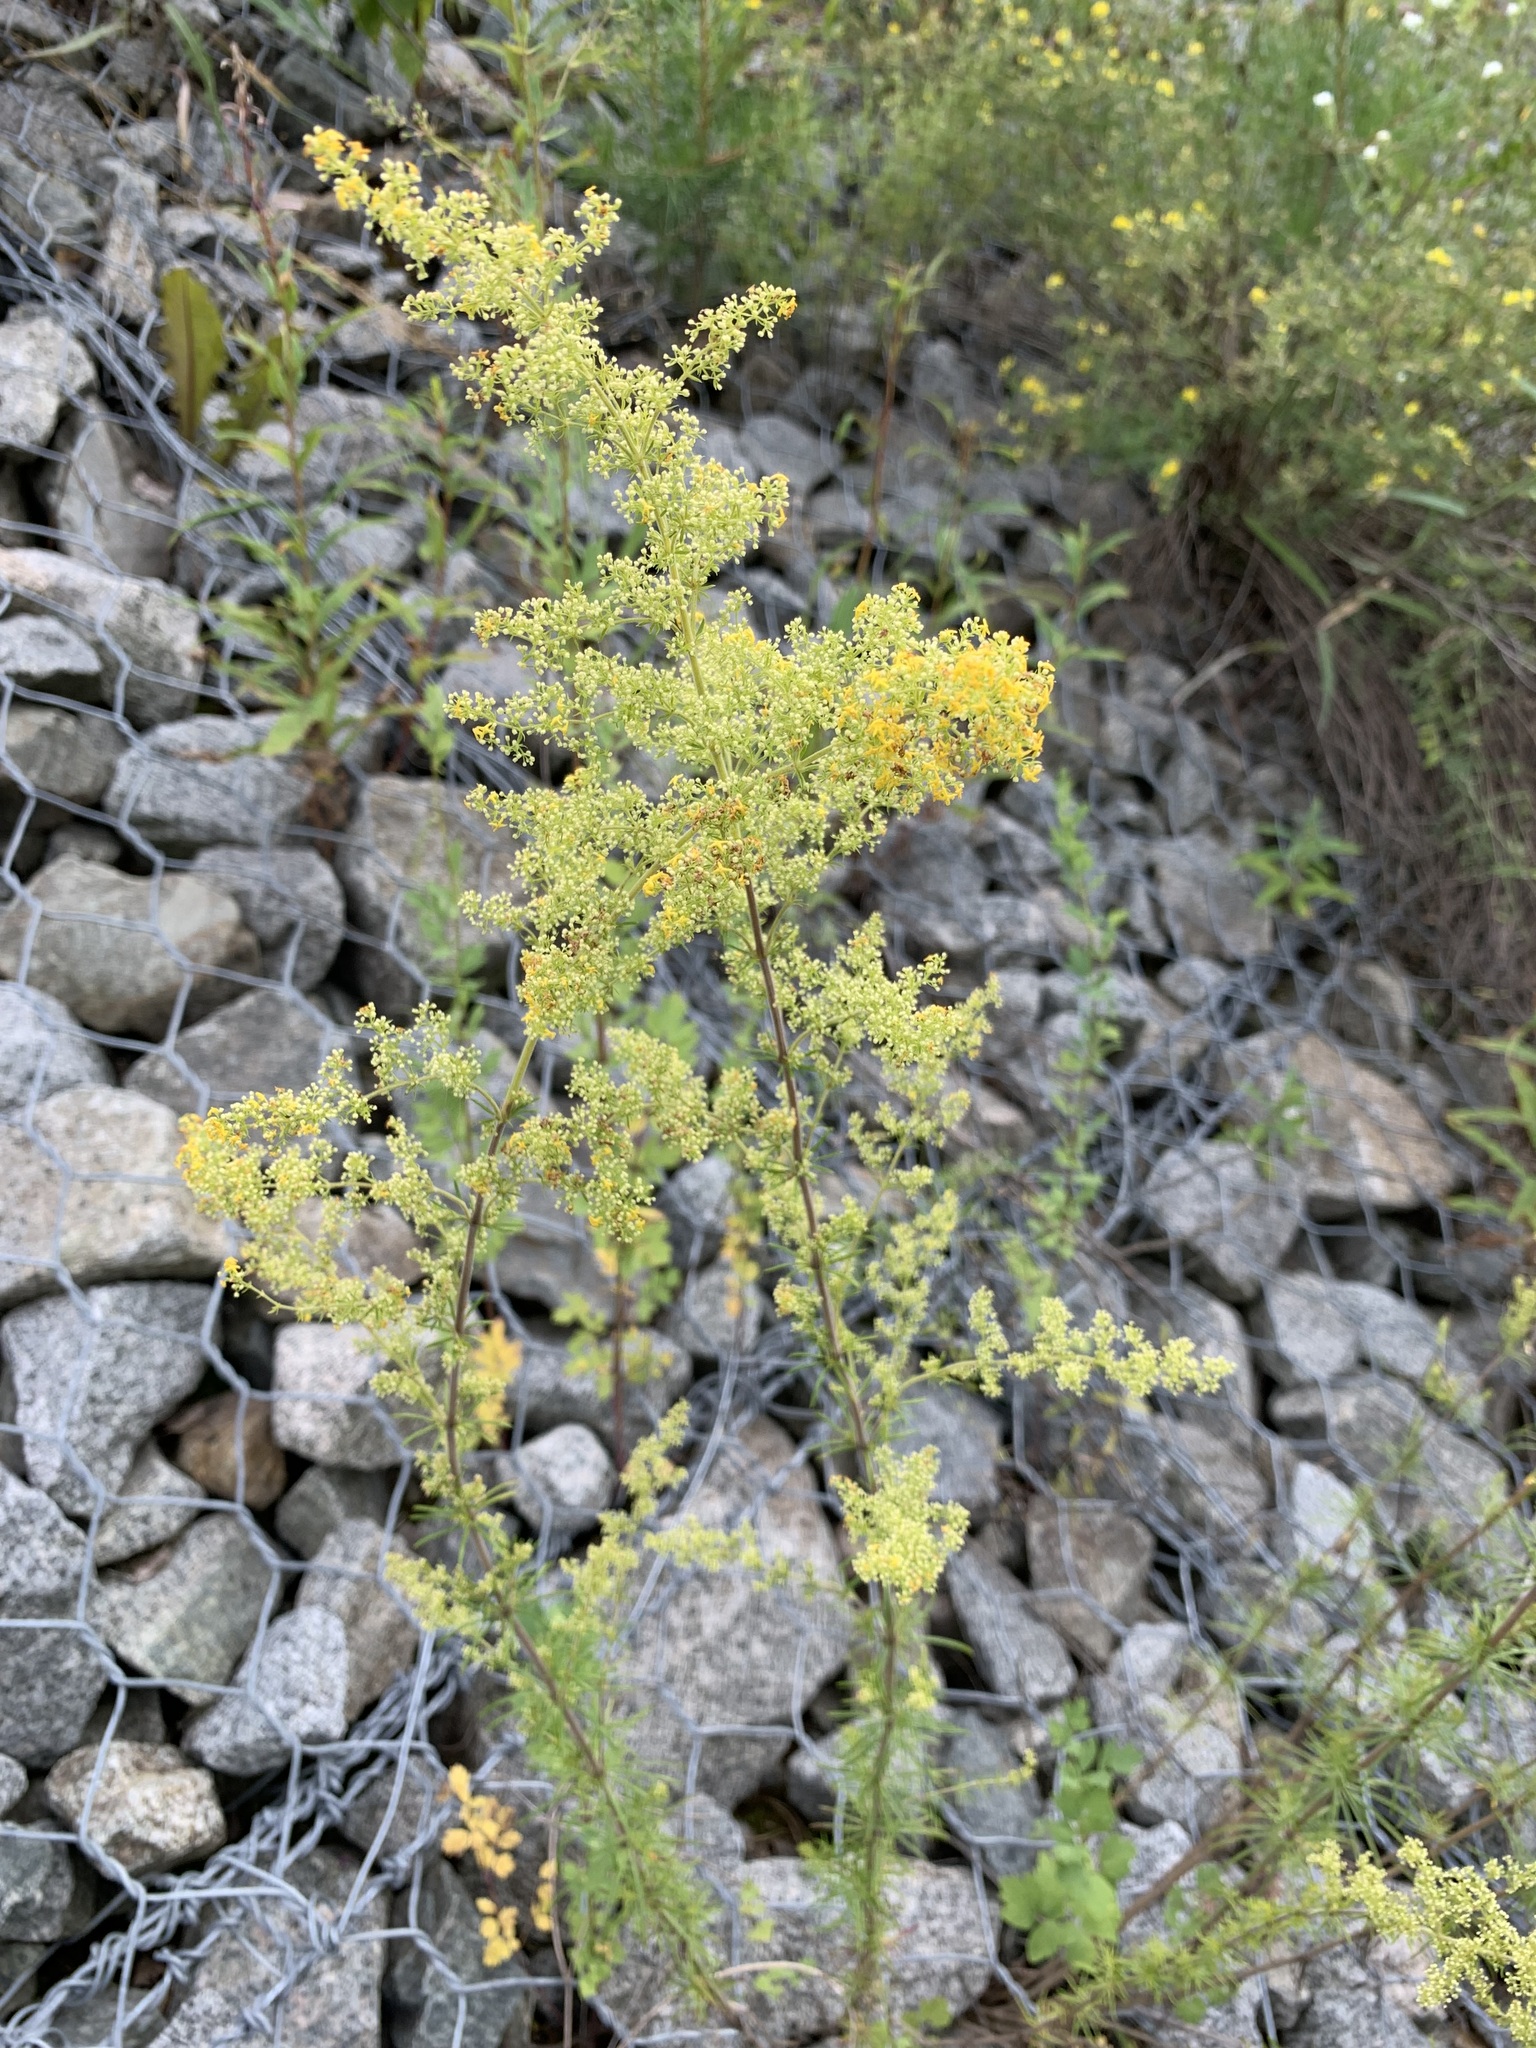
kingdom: Plantae
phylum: Tracheophyta
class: Magnoliopsida
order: Gentianales
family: Rubiaceae
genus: Galium
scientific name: Galium verum
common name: Lady's bedstraw
